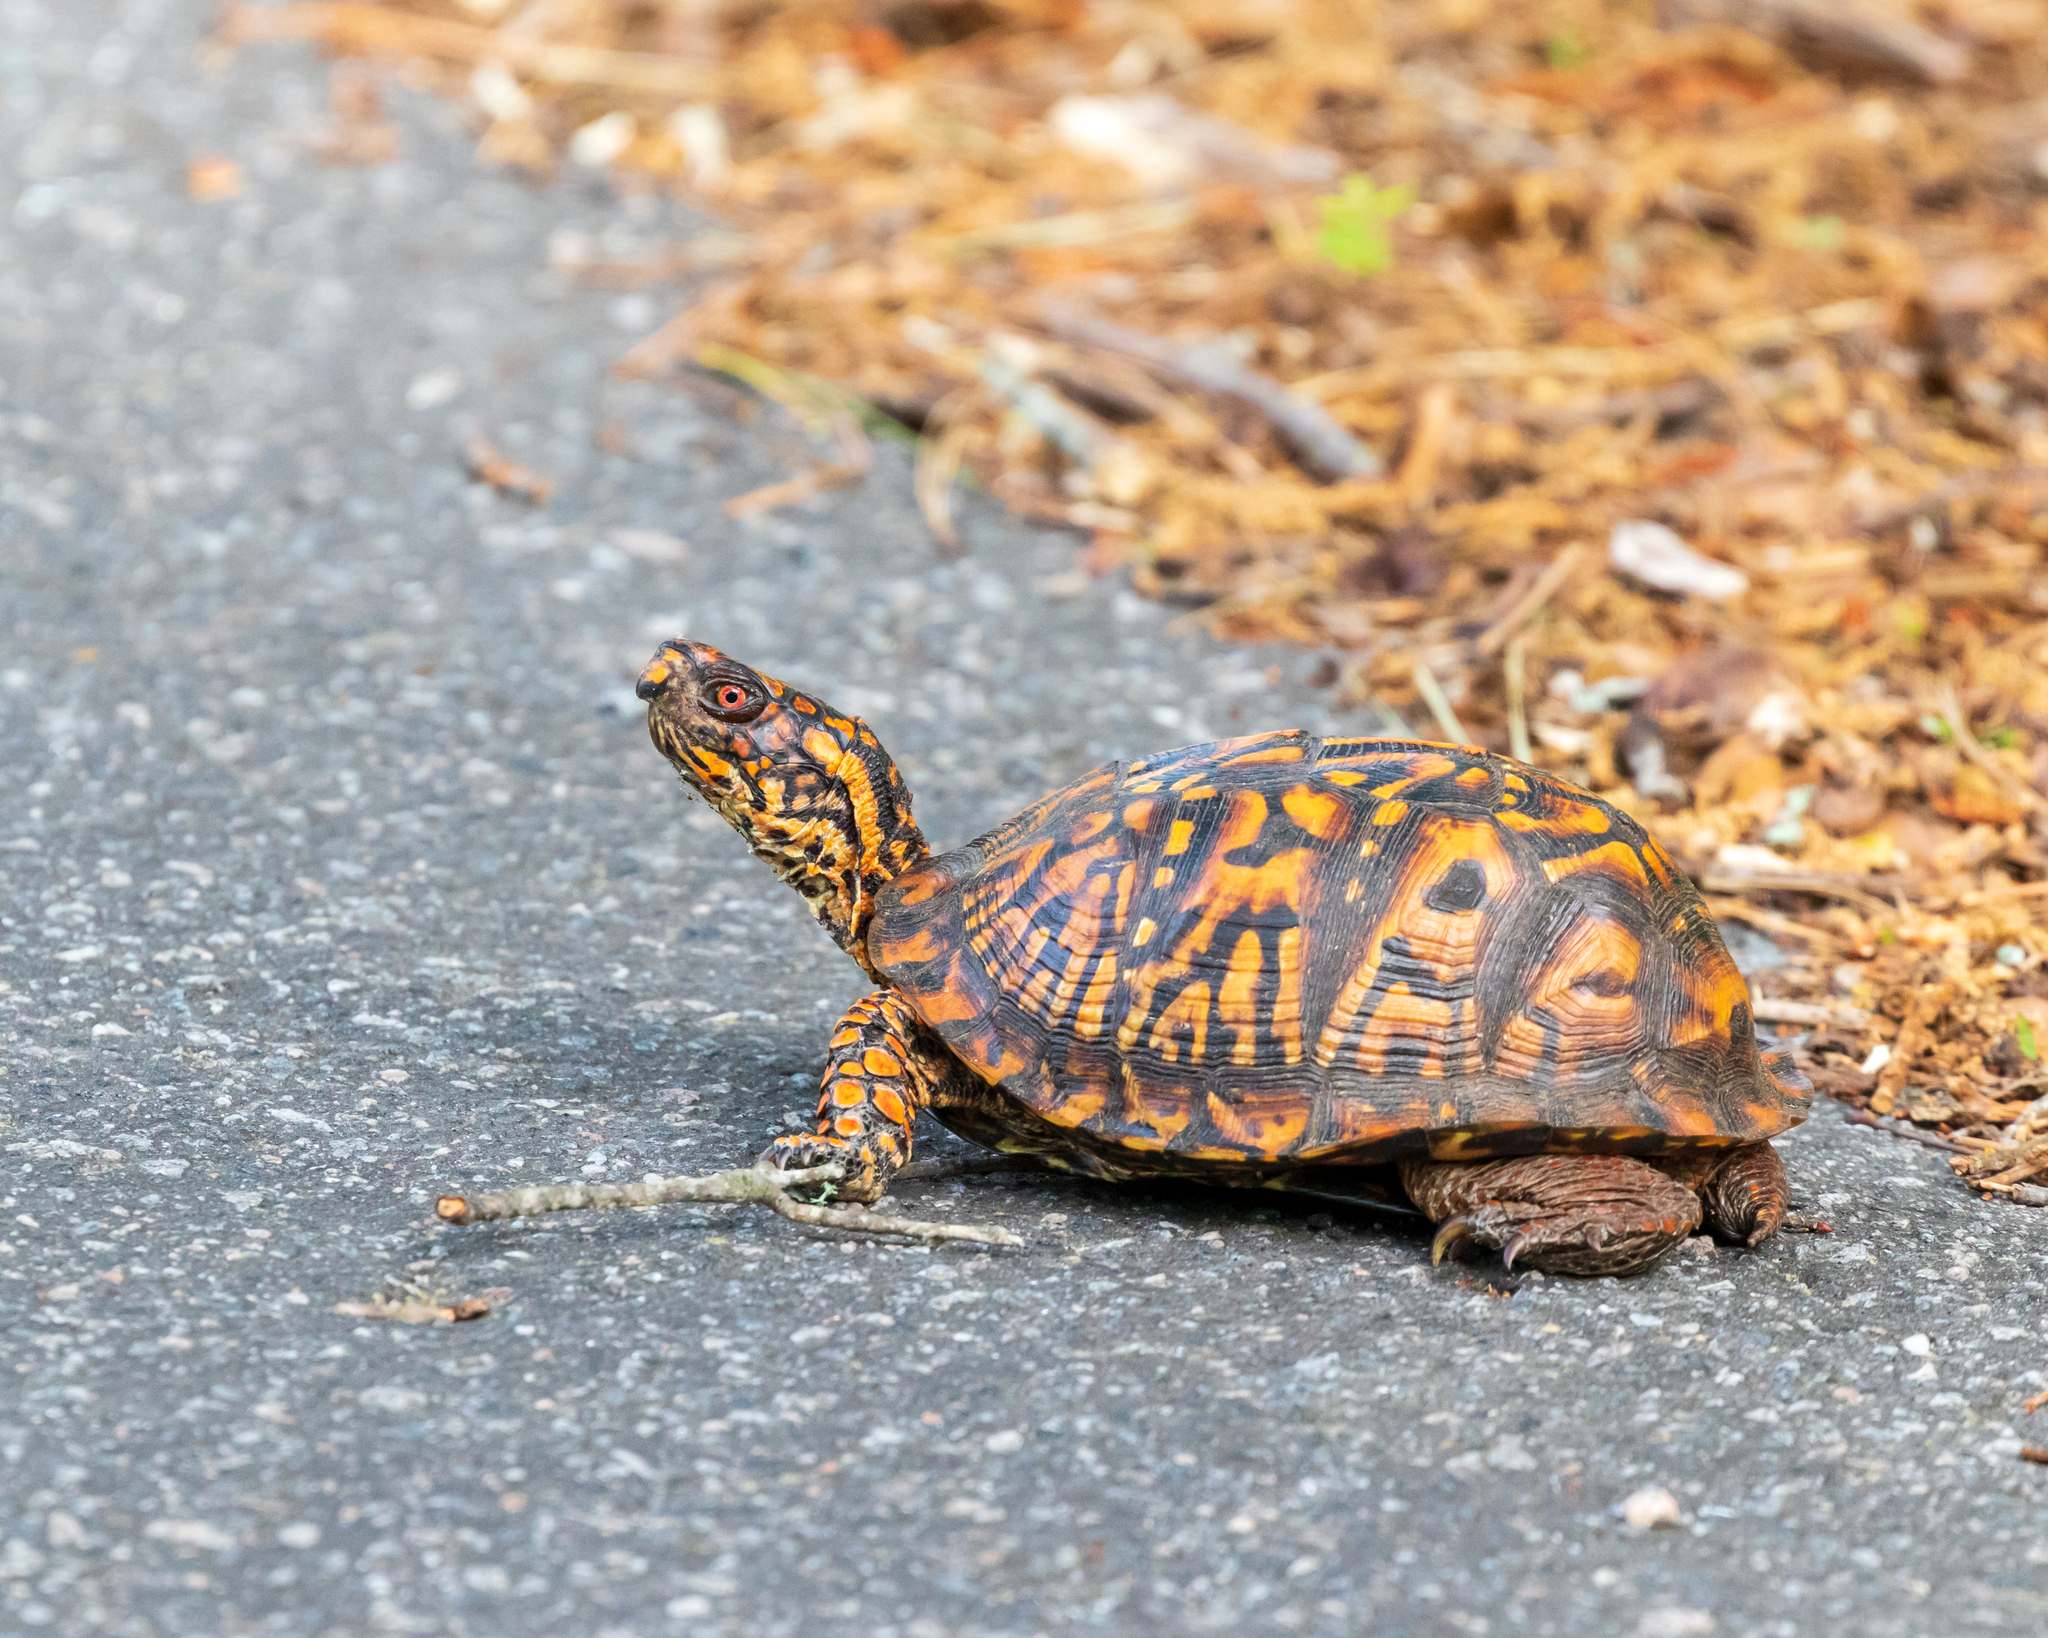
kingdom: Animalia
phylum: Chordata
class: Testudines
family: Emydidae
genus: Terrapene
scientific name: Terrapene carolina
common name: Common box turtle
